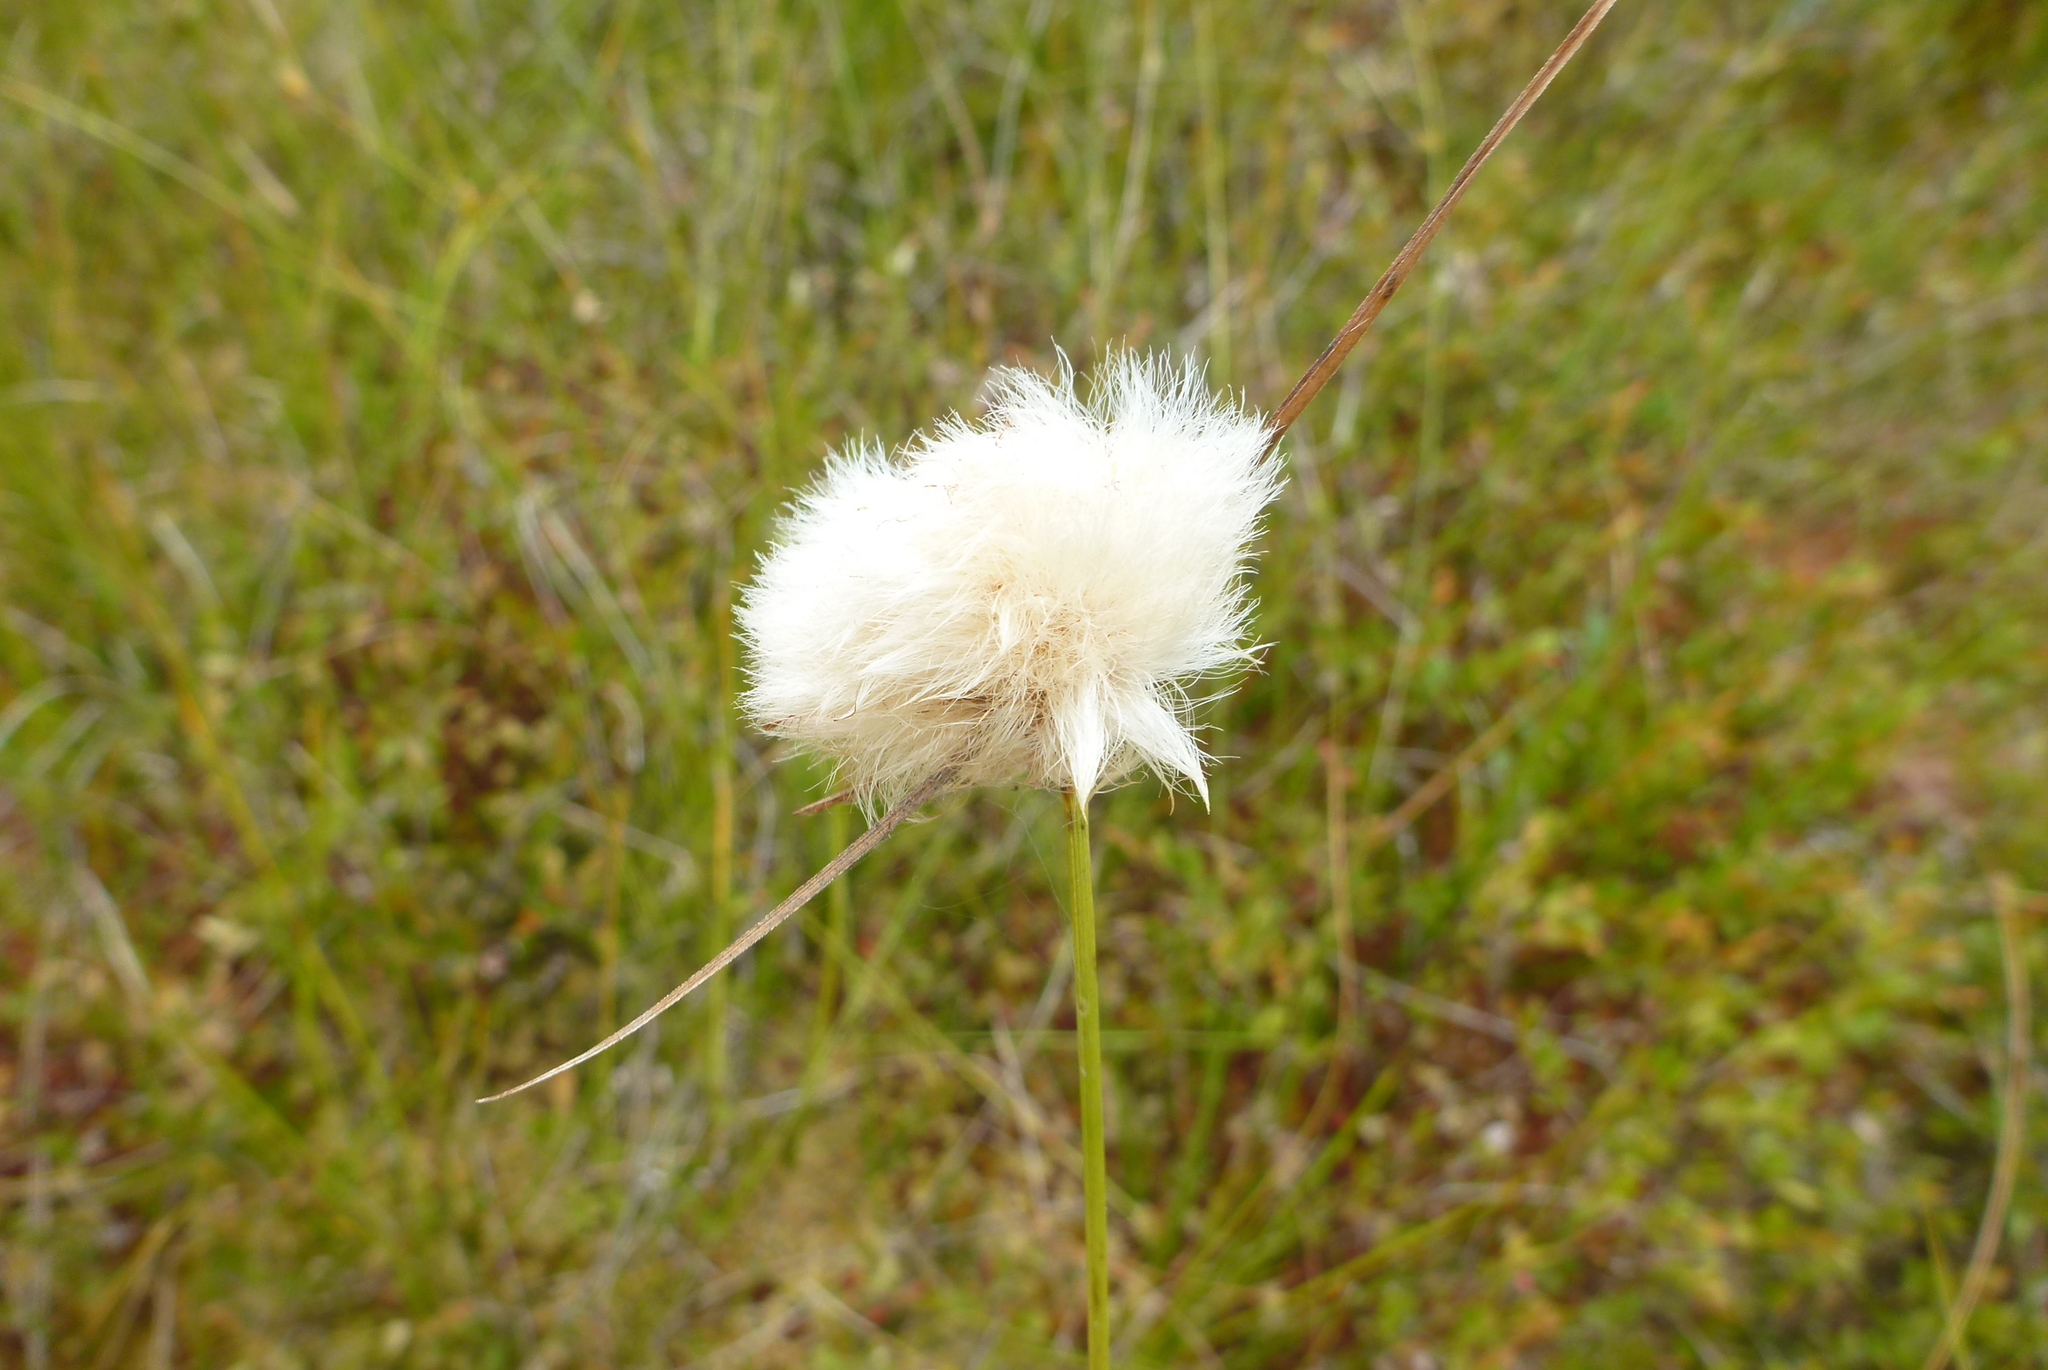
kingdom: Plantae
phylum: Tracheophyta
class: Liliopsida
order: Poales
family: Cyperaceae
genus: Eriophorum
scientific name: Eriophorum virginicum
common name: Tawny cottongrass
